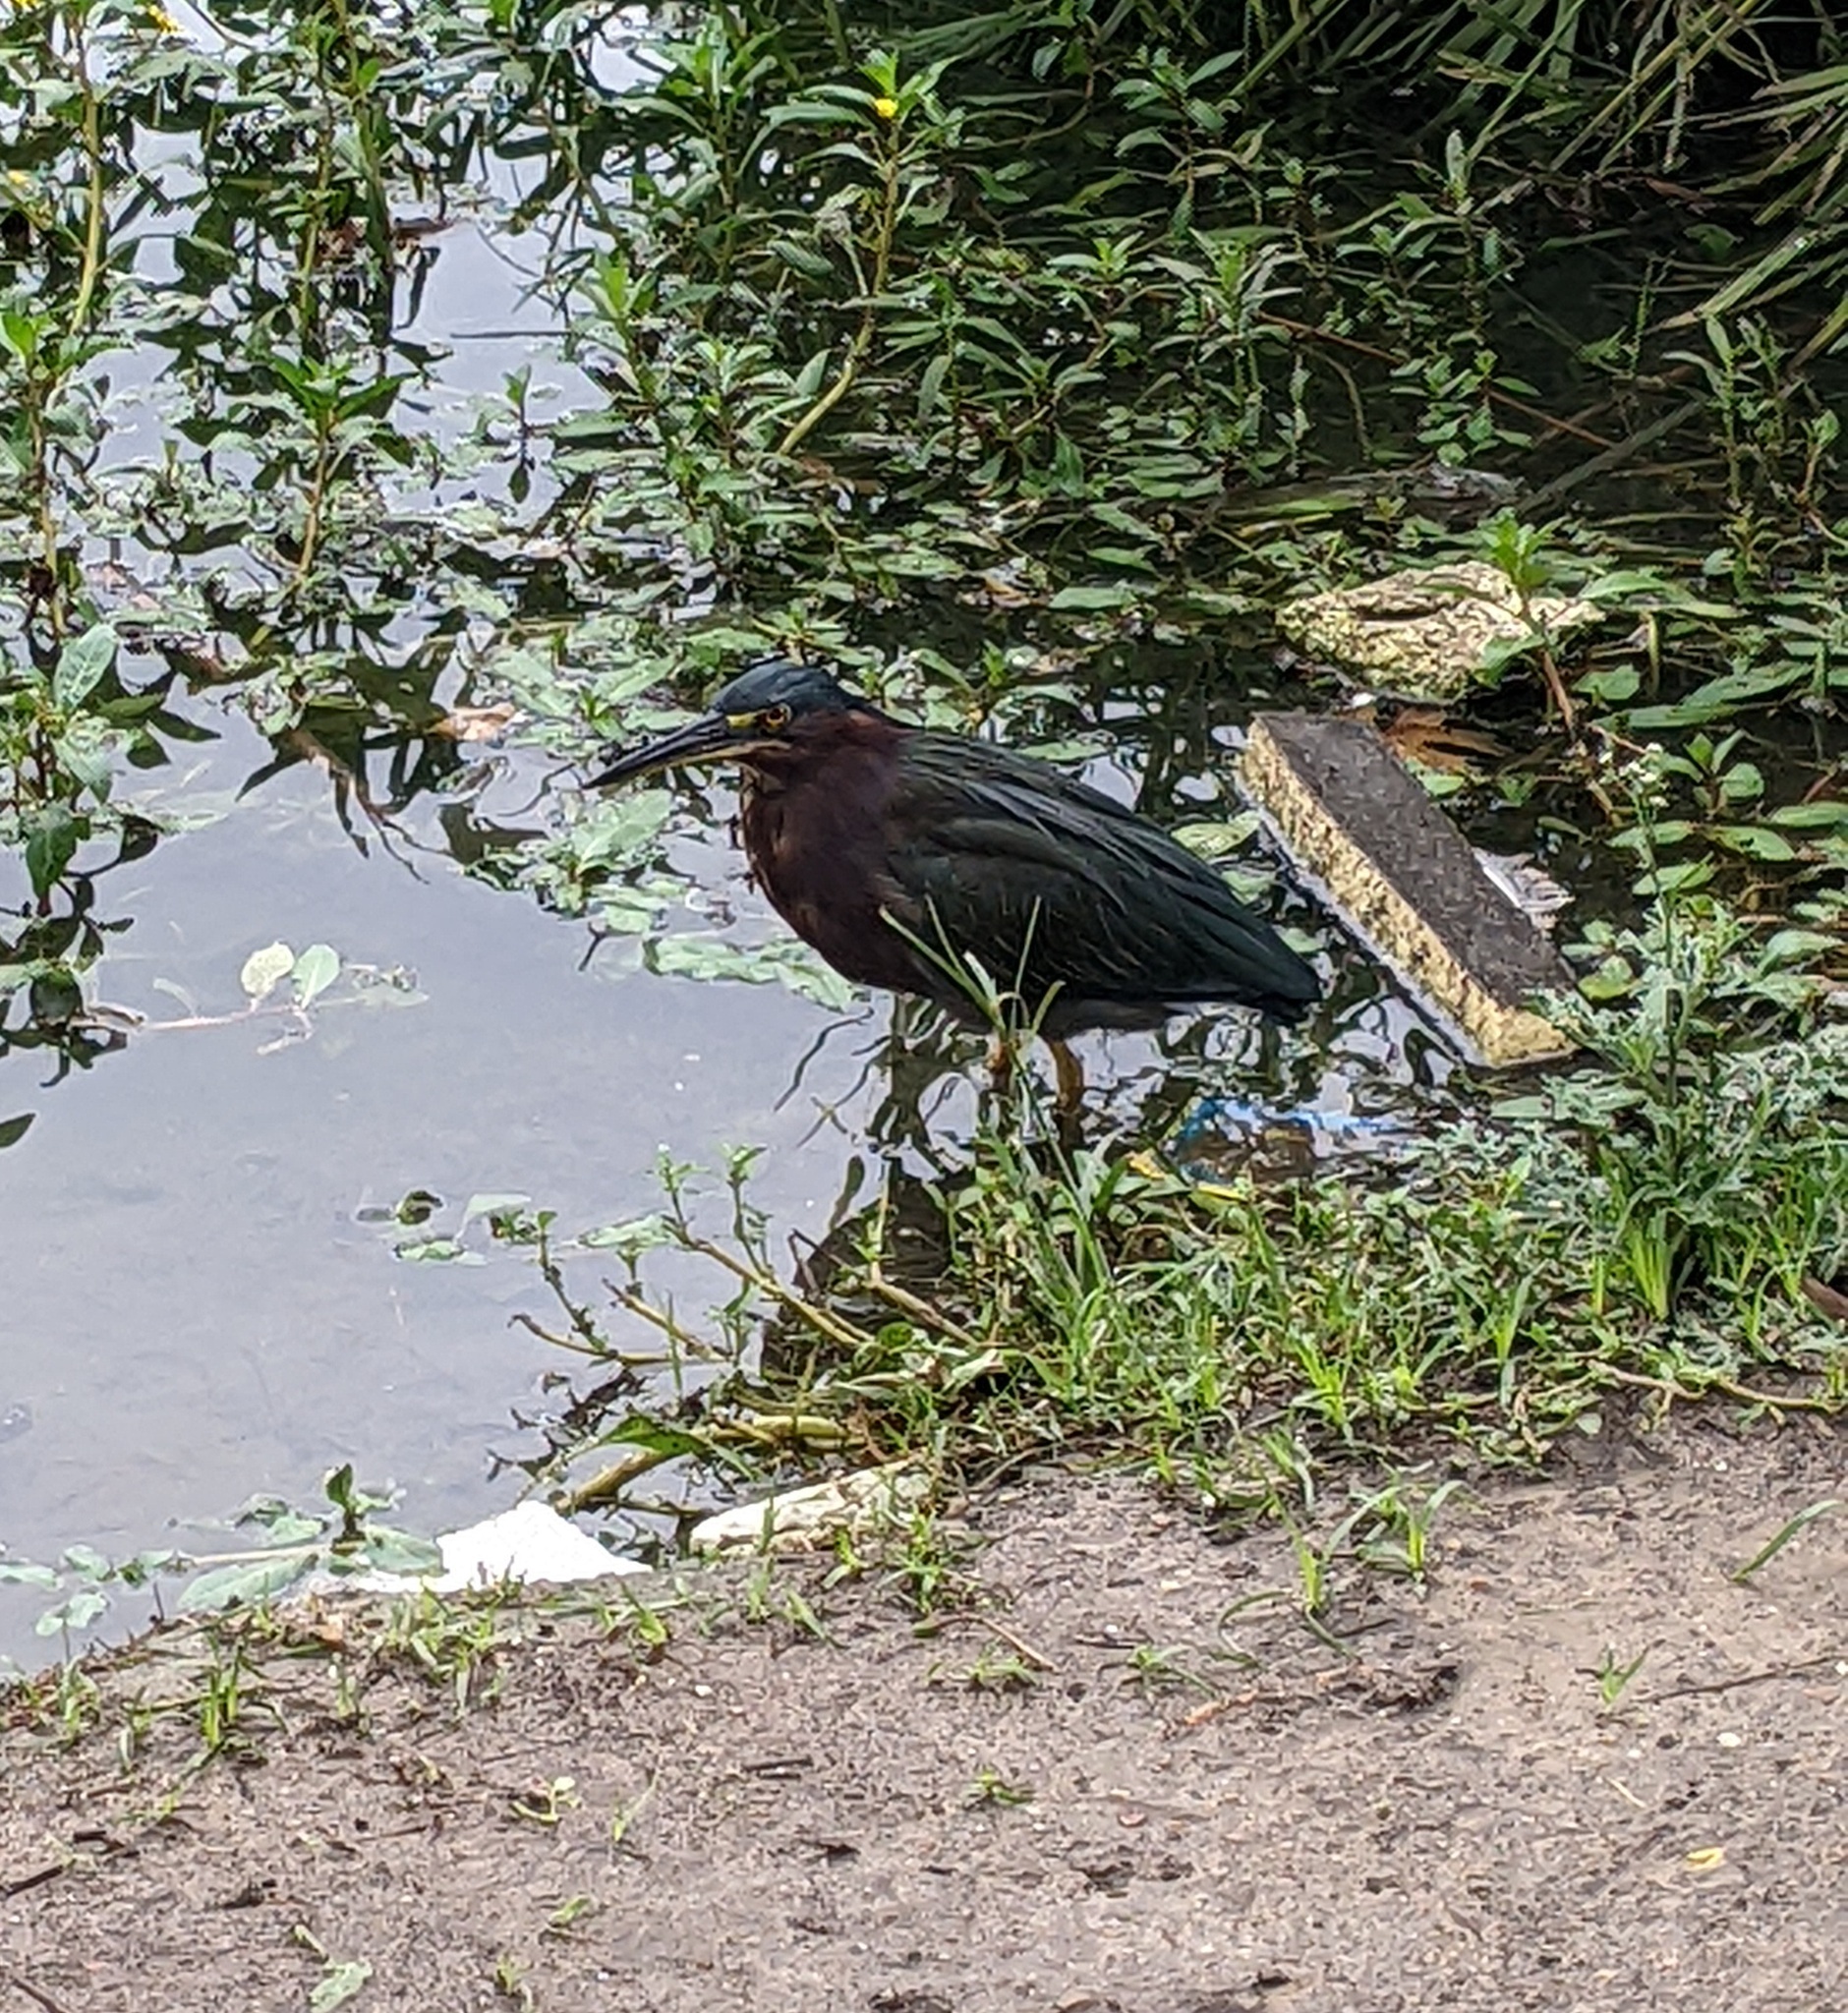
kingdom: Animalia
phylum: Chordata
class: Aves
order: Pelecaniformes
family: Ardeidae
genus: Butorides
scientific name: Butorides virescens
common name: Green heron
